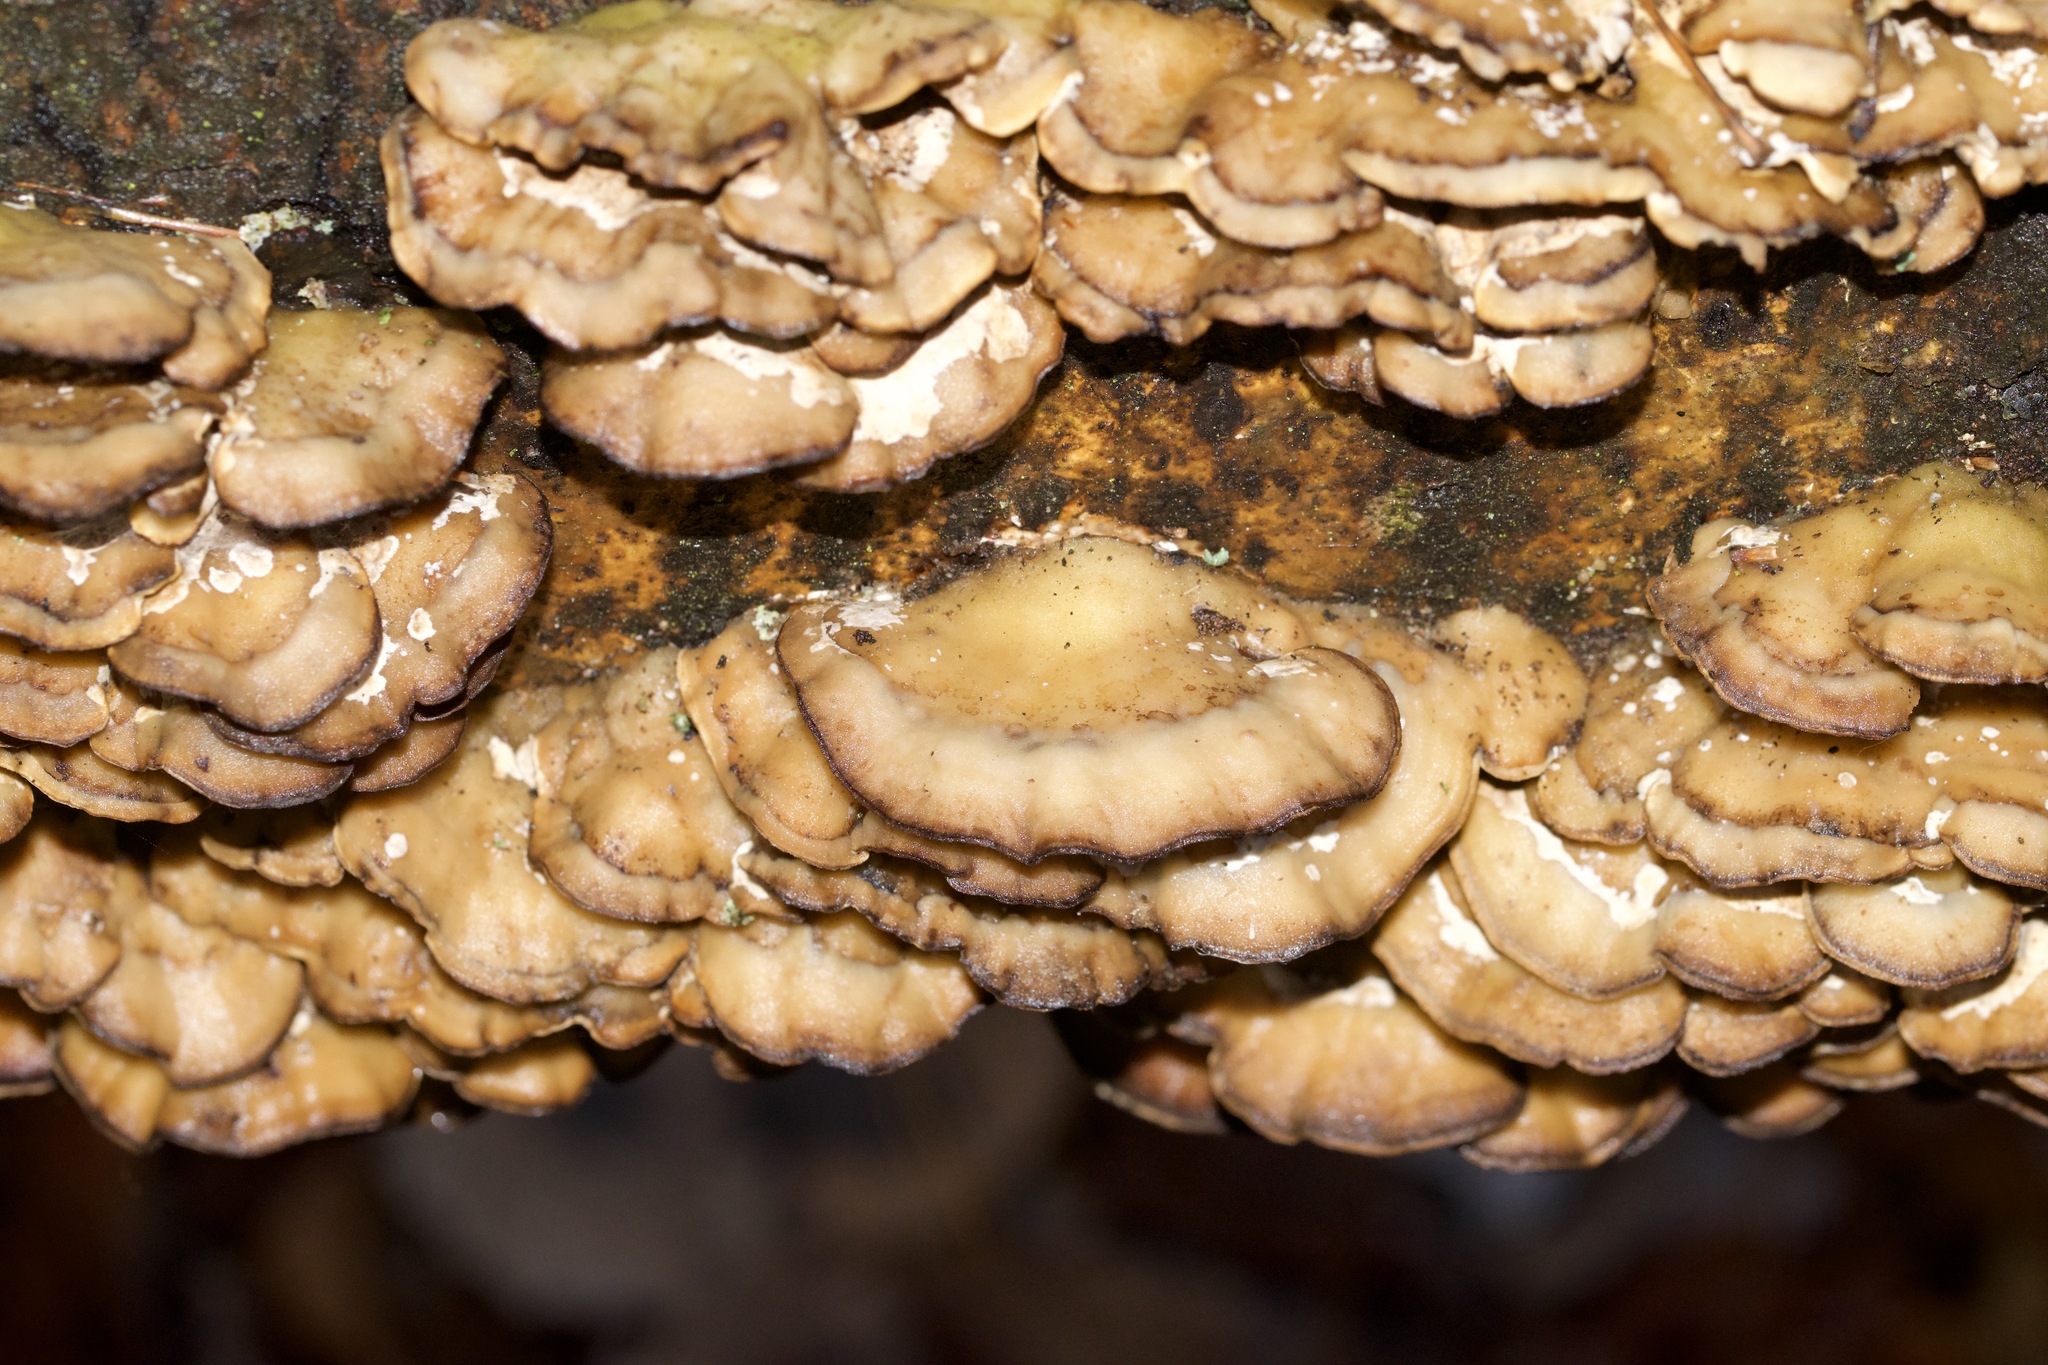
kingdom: Fungi
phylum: Basidiomycota
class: Agaricomycetes
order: Polyporales
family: Phanerochaetaceae
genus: Bjerkandera
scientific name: Bjerkandera adusta
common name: Smoky bracket
